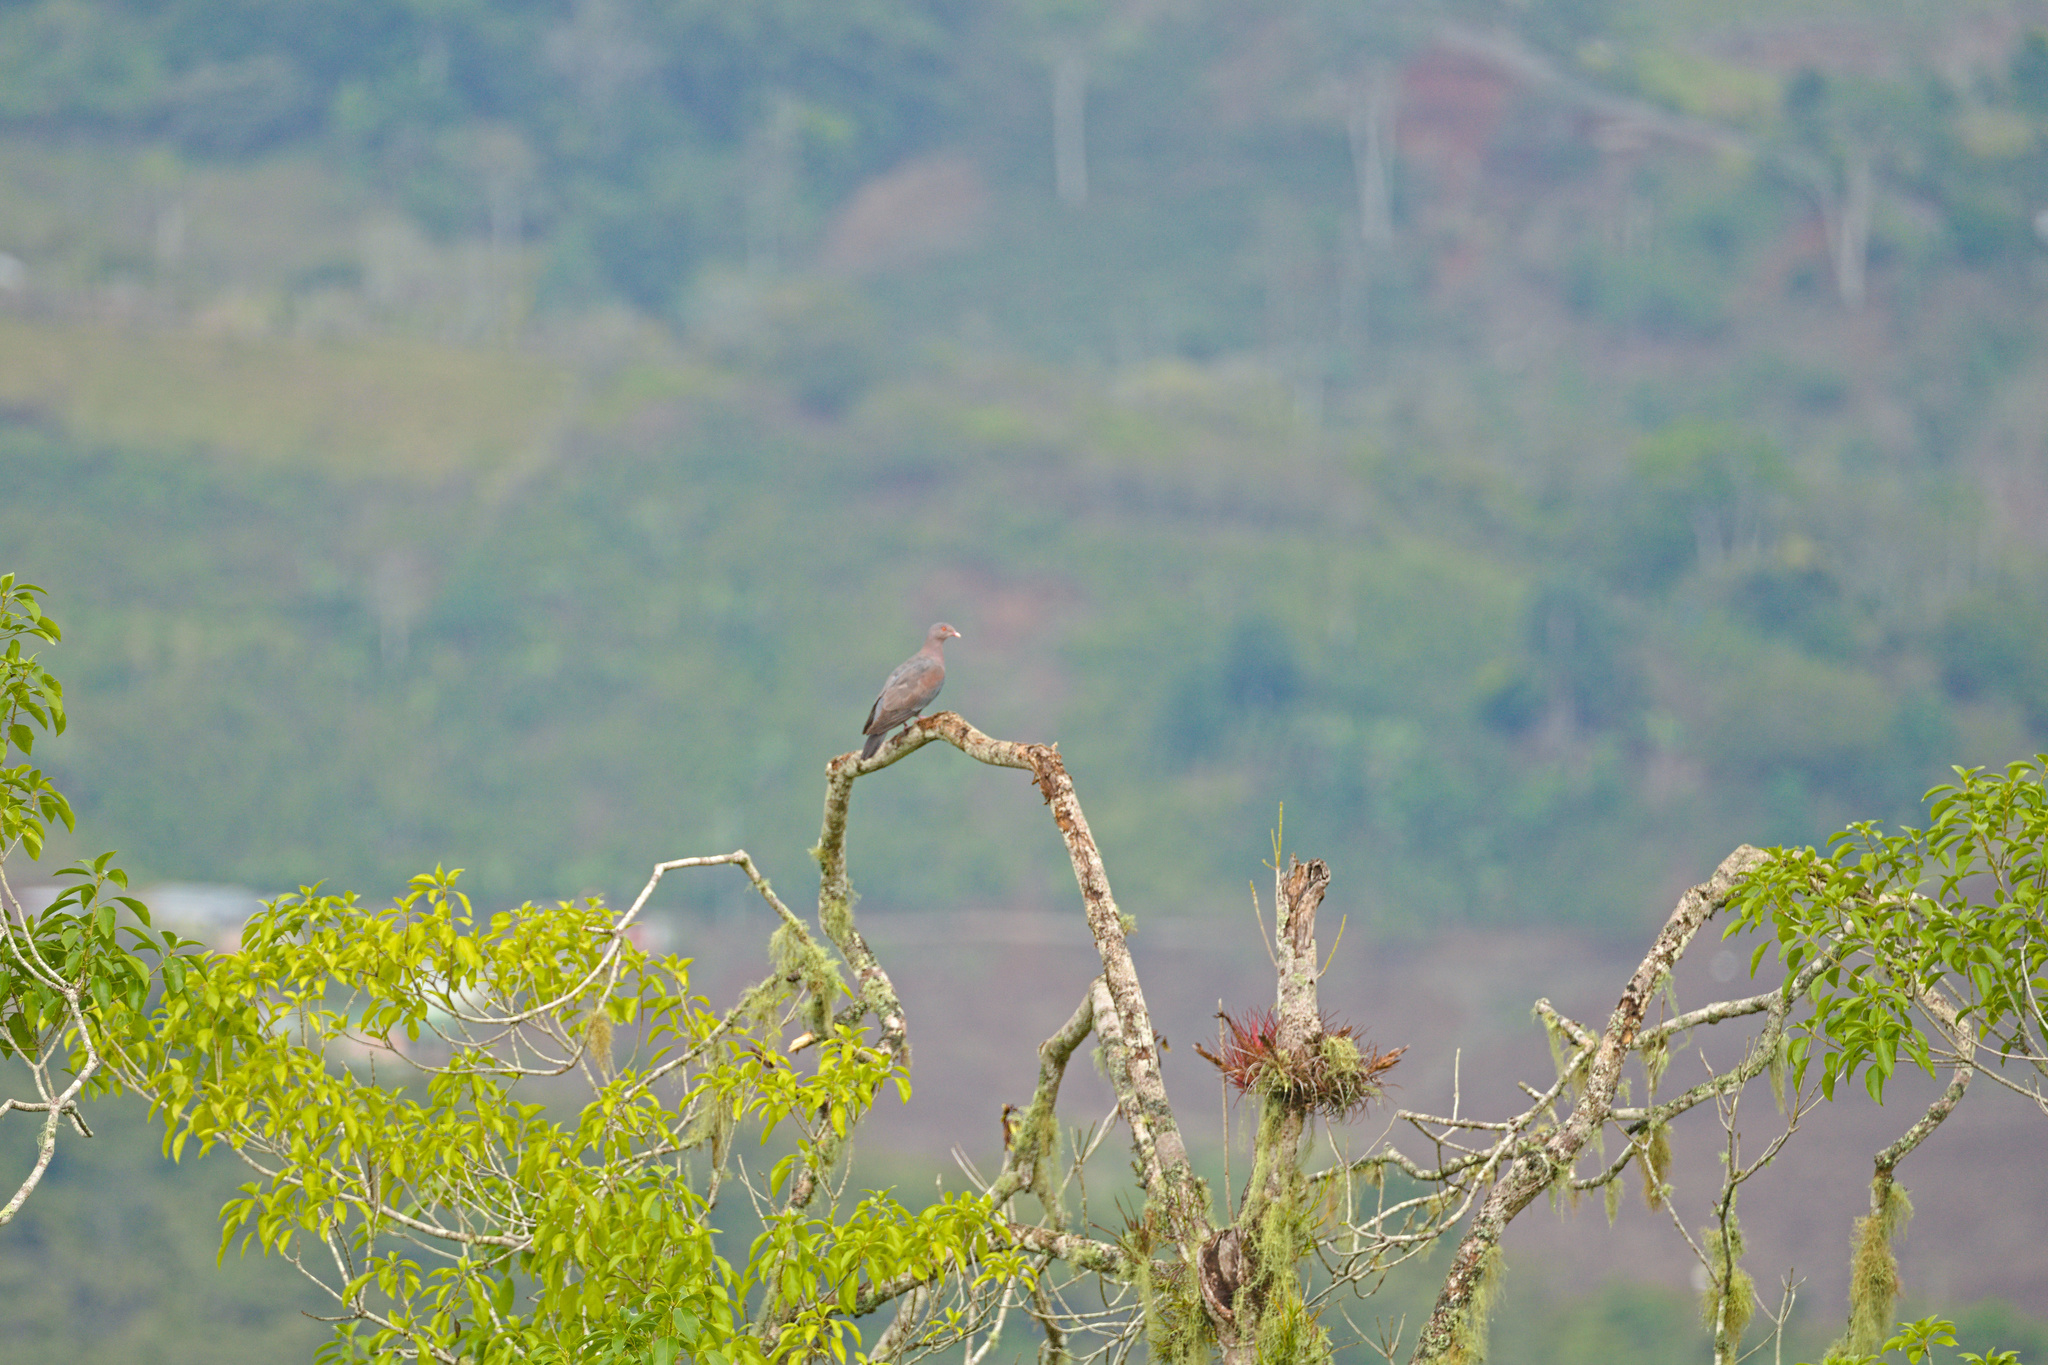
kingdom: Animalia
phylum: Chordata
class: Aves
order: Columbiformes
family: Columbidae
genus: Patagioenas
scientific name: Patagioenas flavirostris
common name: Red-billed pigeon
